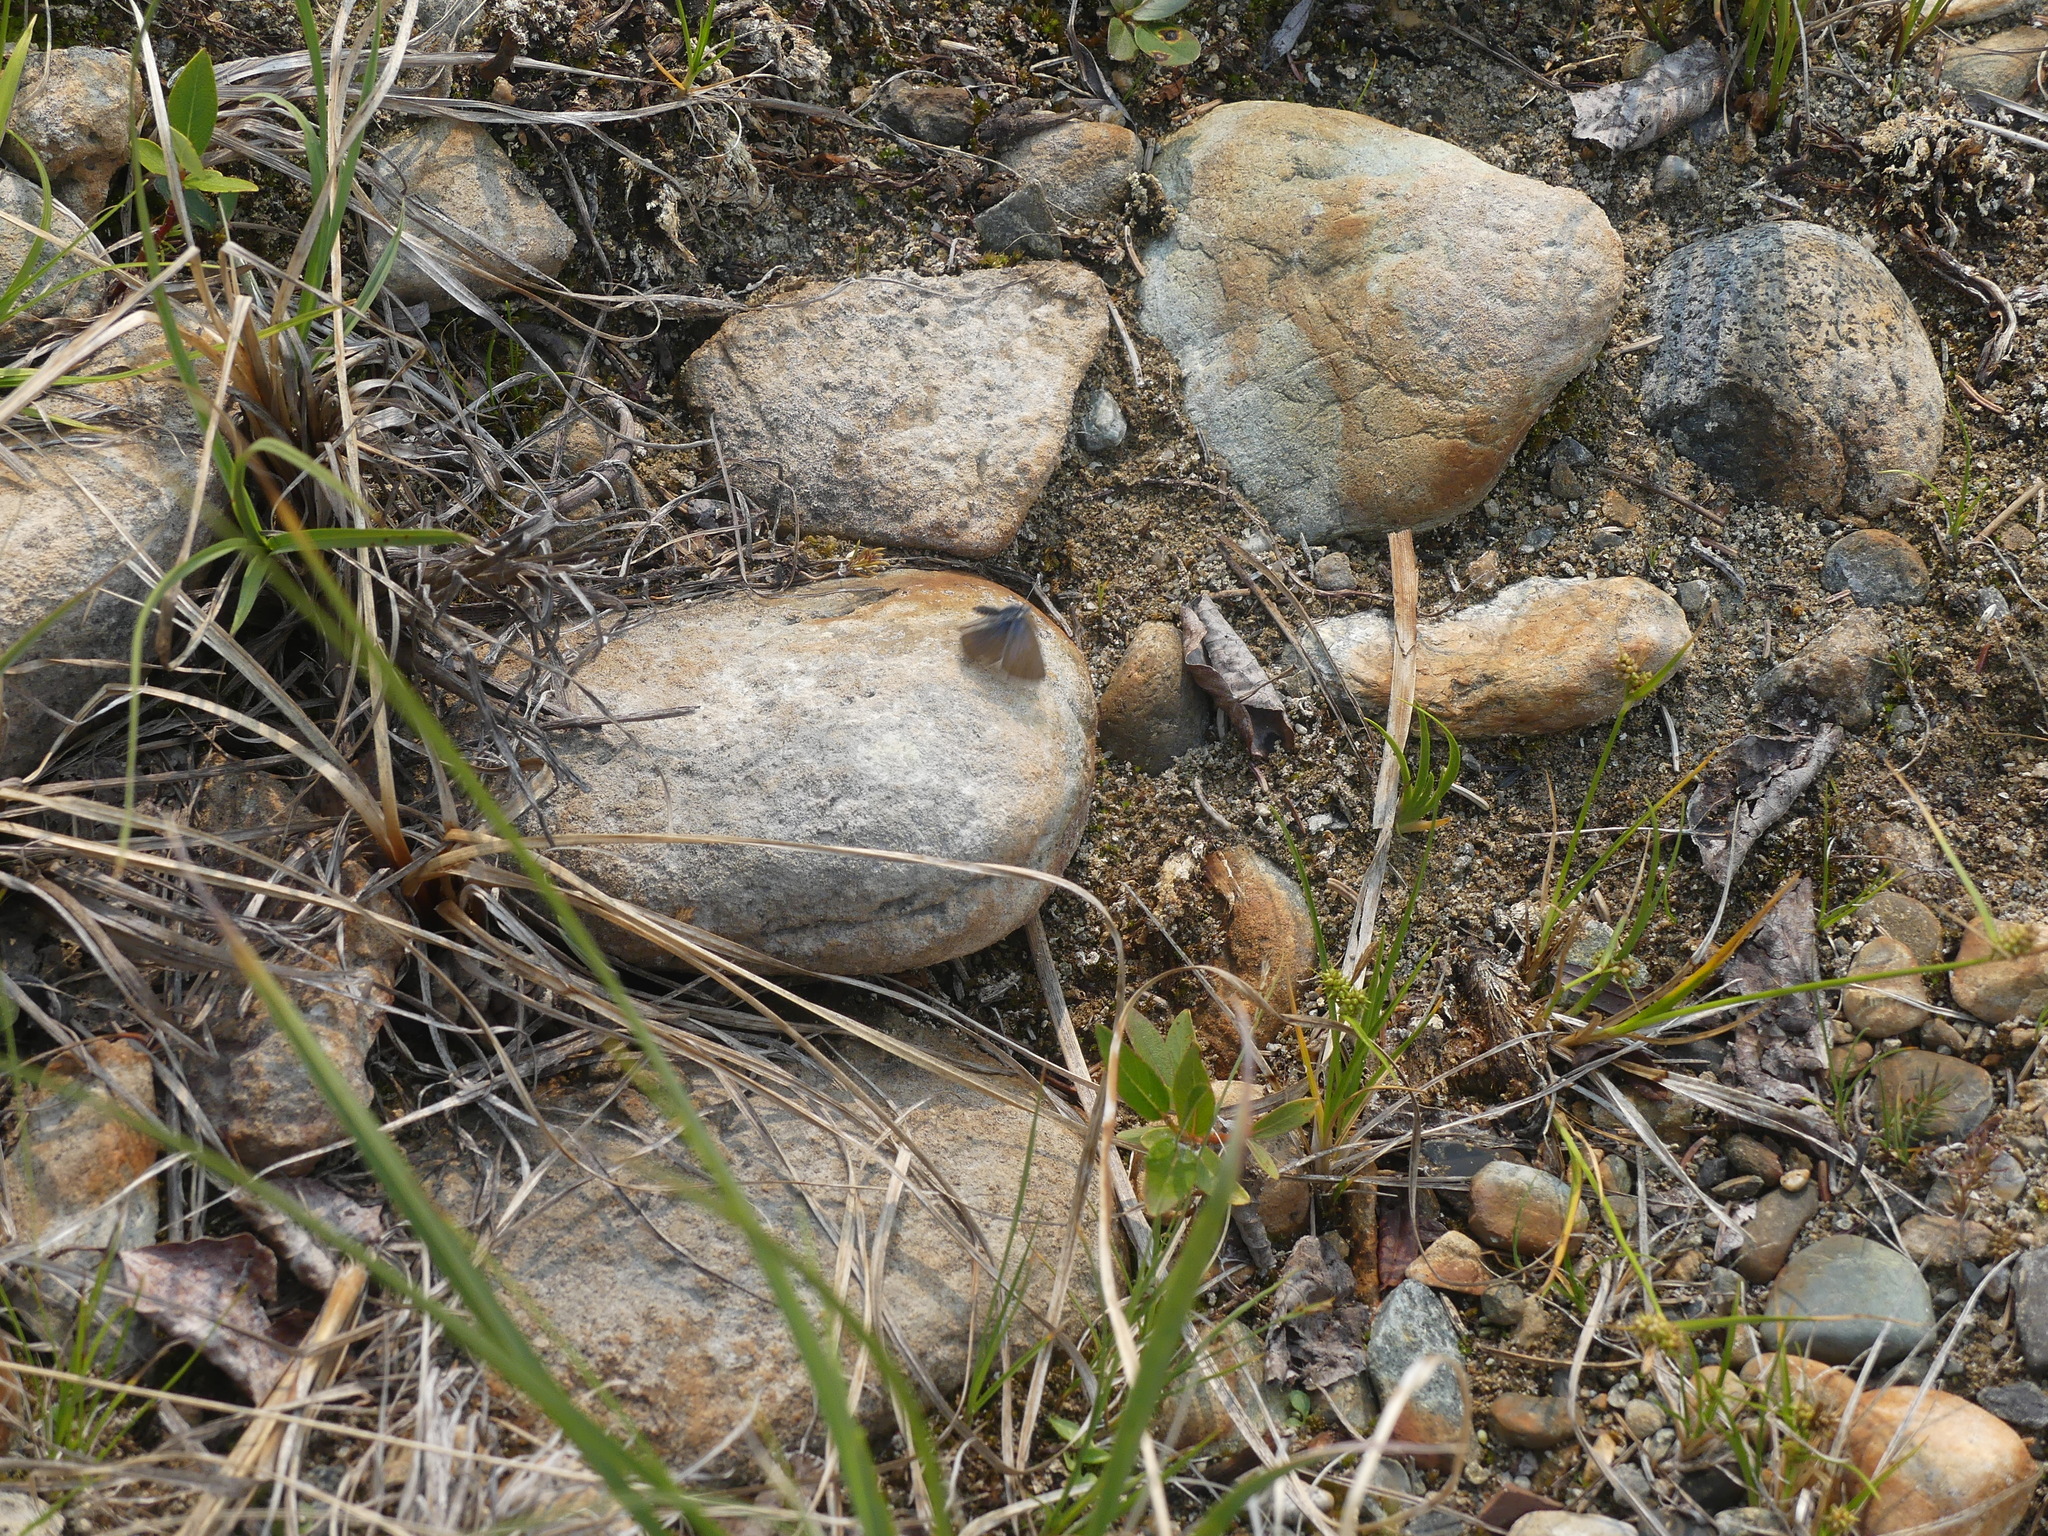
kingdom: Animalia
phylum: Arthropoda
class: Insecta
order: Lepidoptera
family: Lycaenidae
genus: Lycaeides
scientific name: Lycaeides idas
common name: Northern blue
